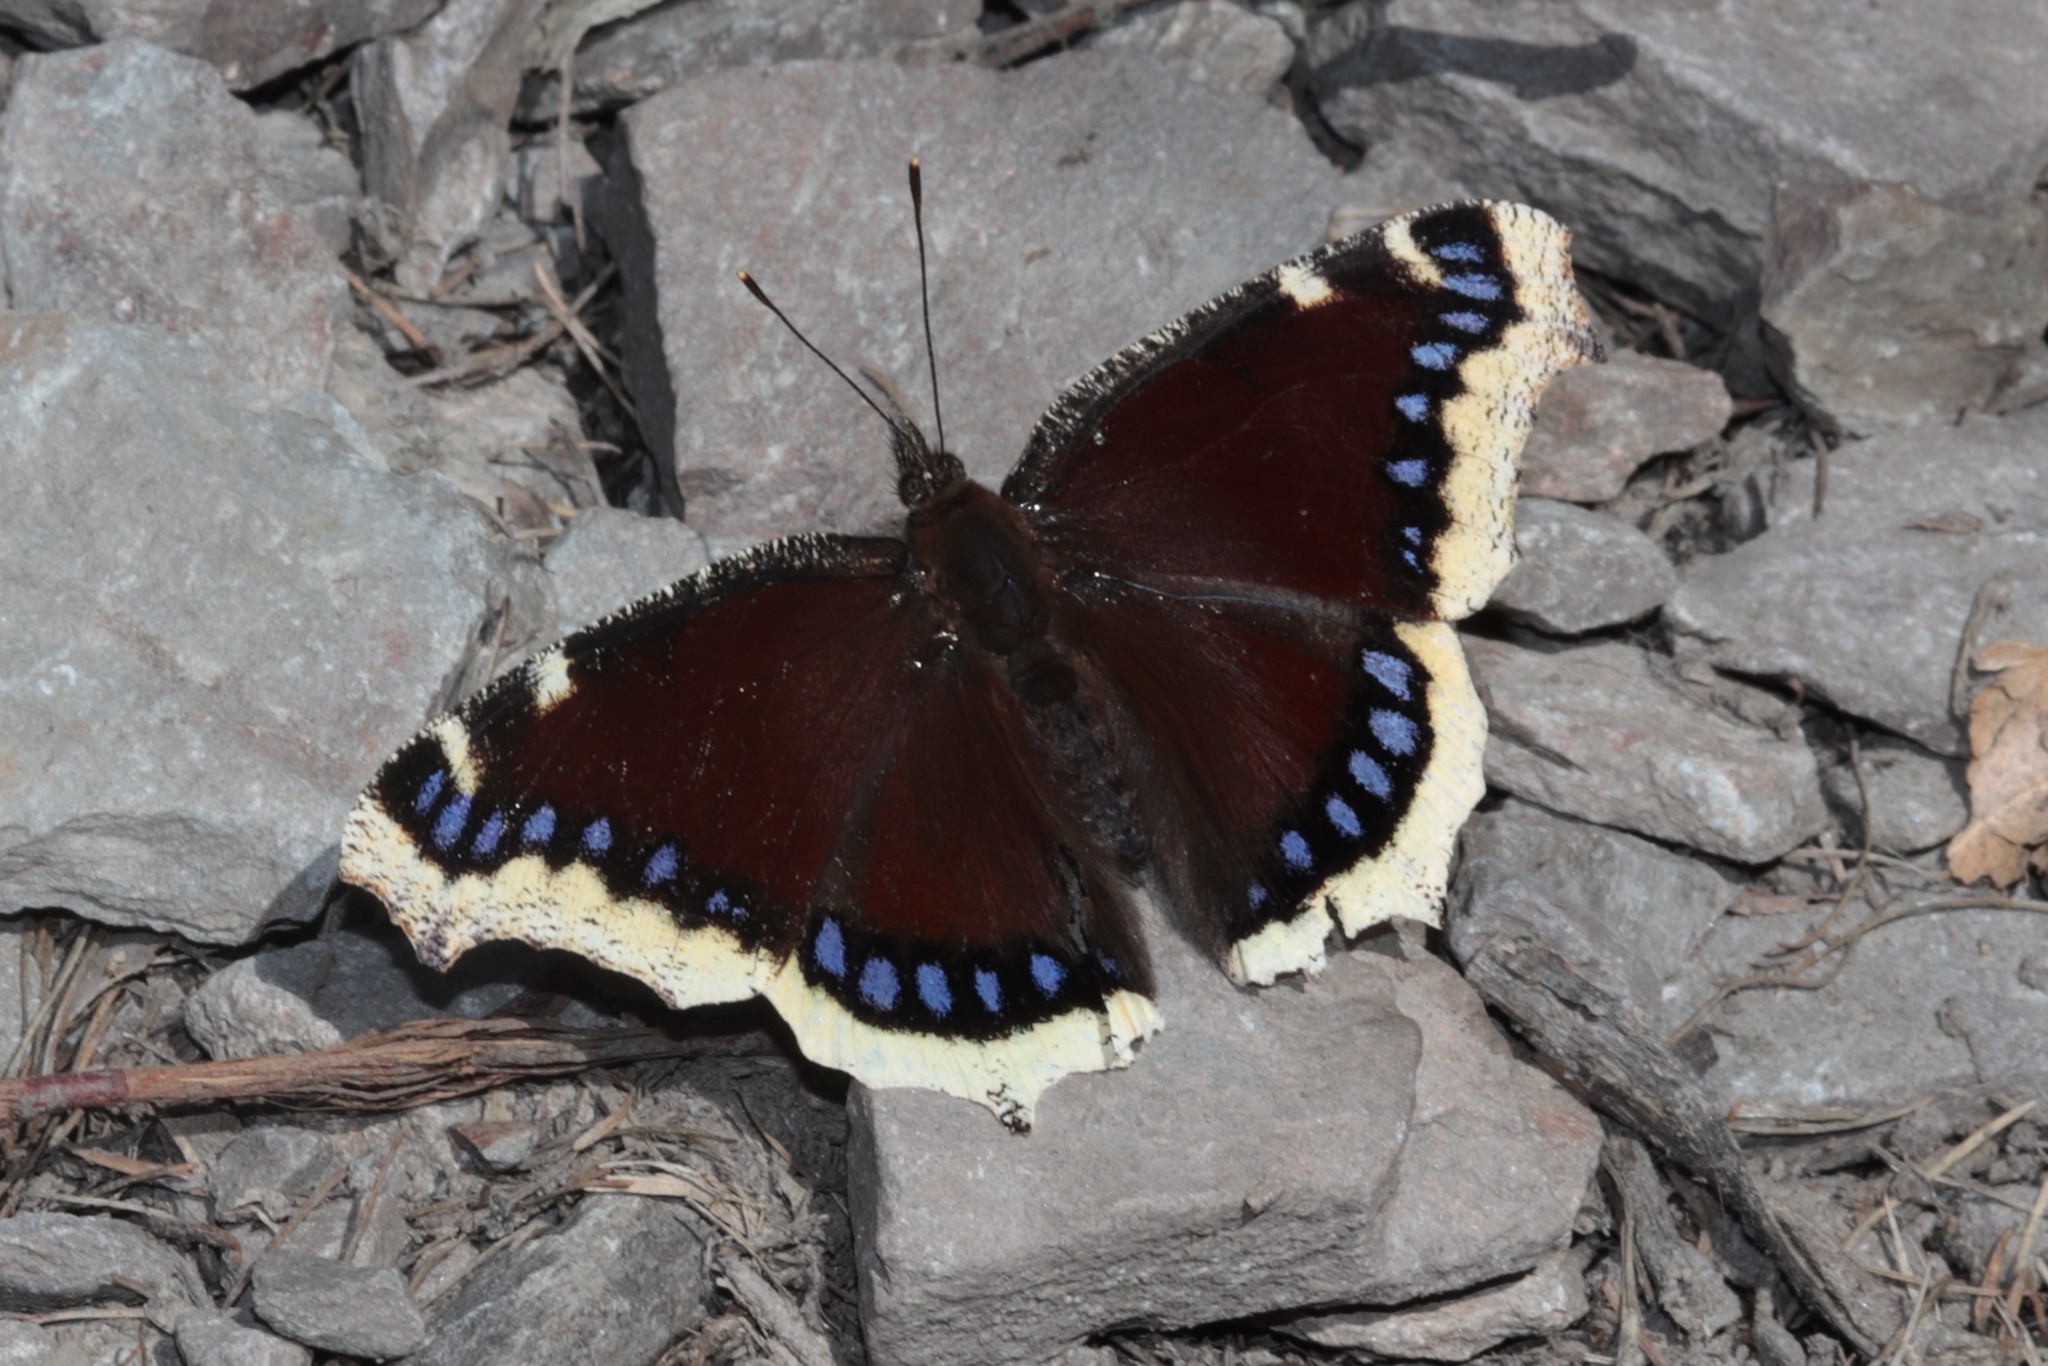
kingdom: Animalia
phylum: Arthropoda
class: Insecta
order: Lepidoptera
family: Nymphalidae
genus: Nymphalis
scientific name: Nymphalis antiopa
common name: Camberwell beauty
